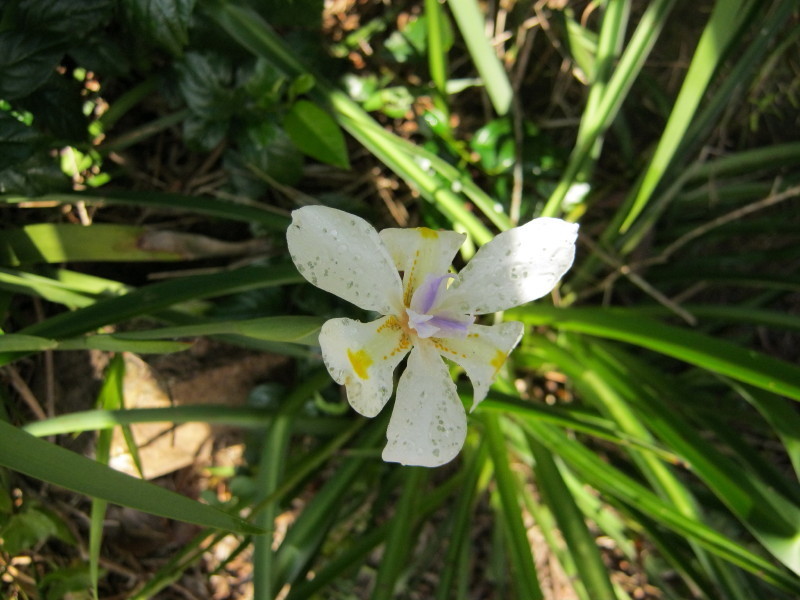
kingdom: Plantae
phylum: Tracheophyta
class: Liliopsida
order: Asparagales
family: Iridaceae
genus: Dietes
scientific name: Dietes iridioides
